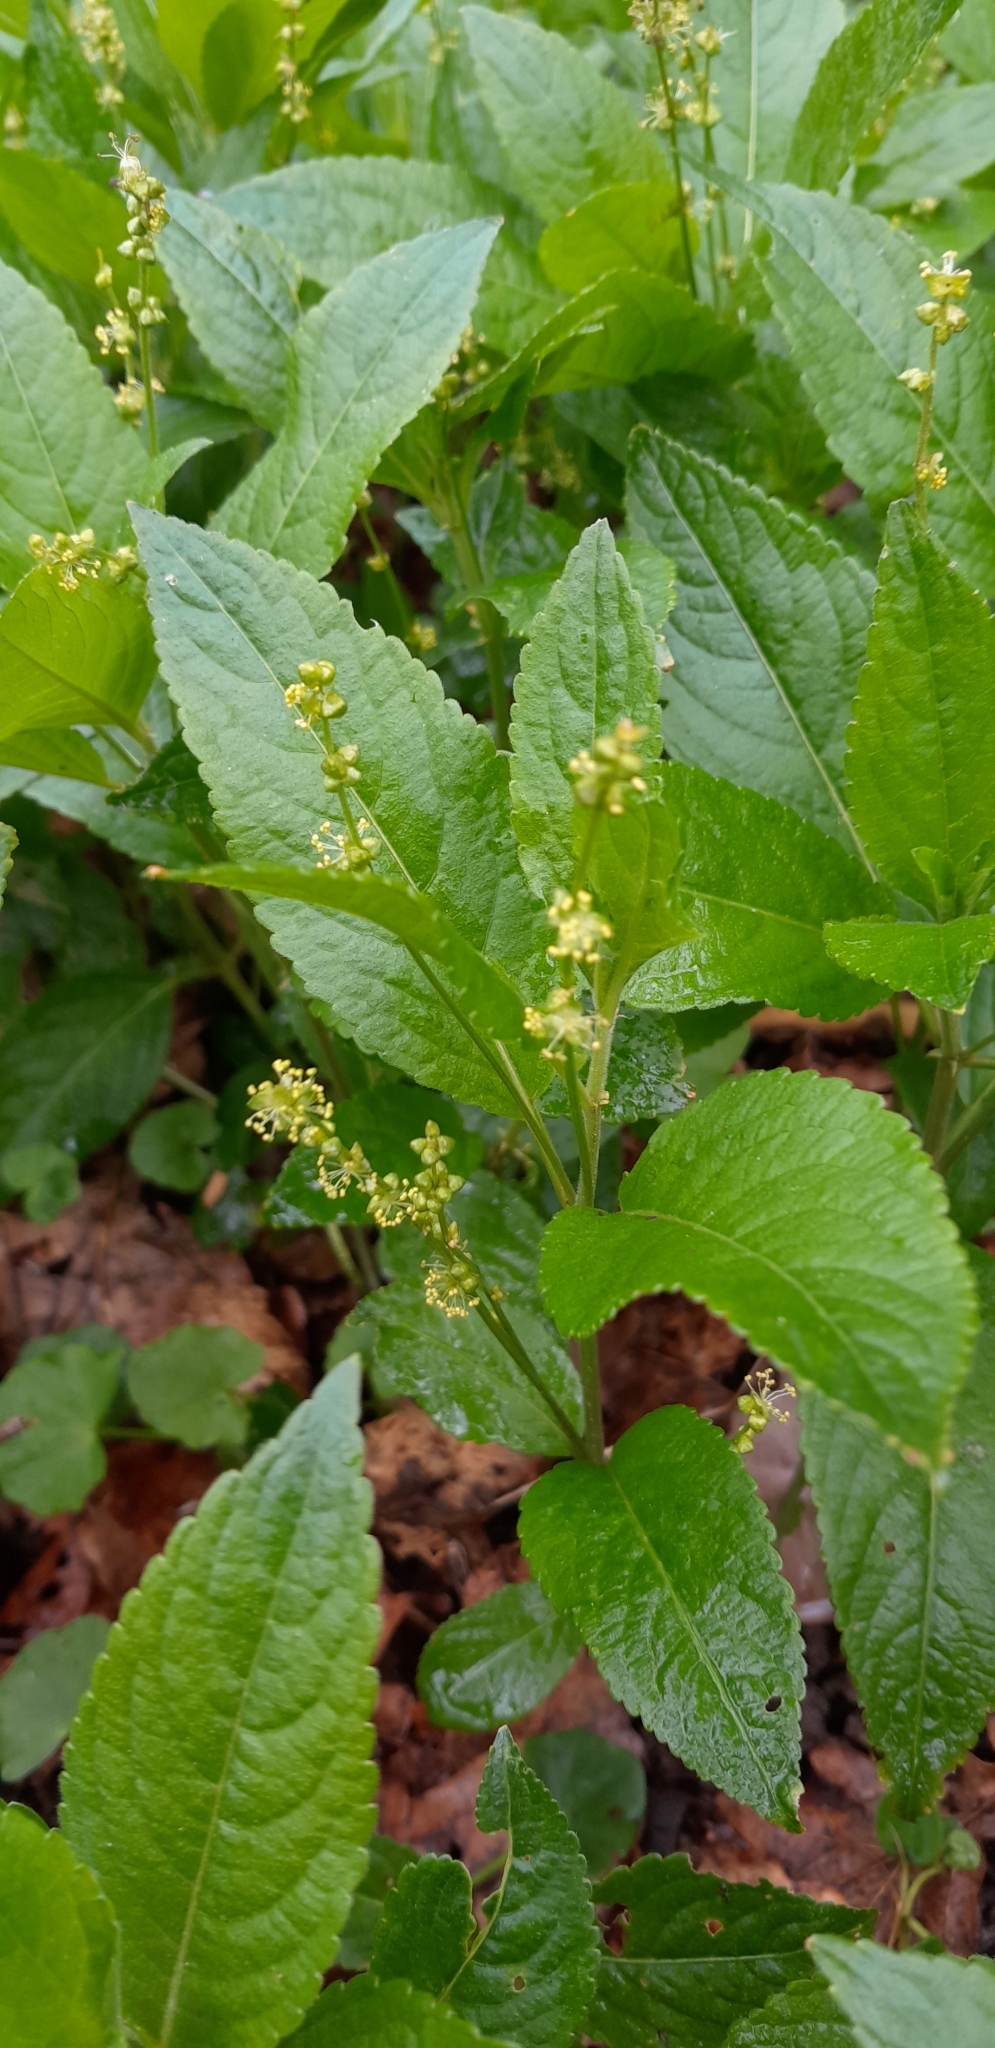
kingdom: Plantae
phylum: Tracheophyta
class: Magnoliopsida
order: Malpighiales
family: Euphorbiaceae
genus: Mercurialis
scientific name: Mercurialis perennis
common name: Dog mercury
